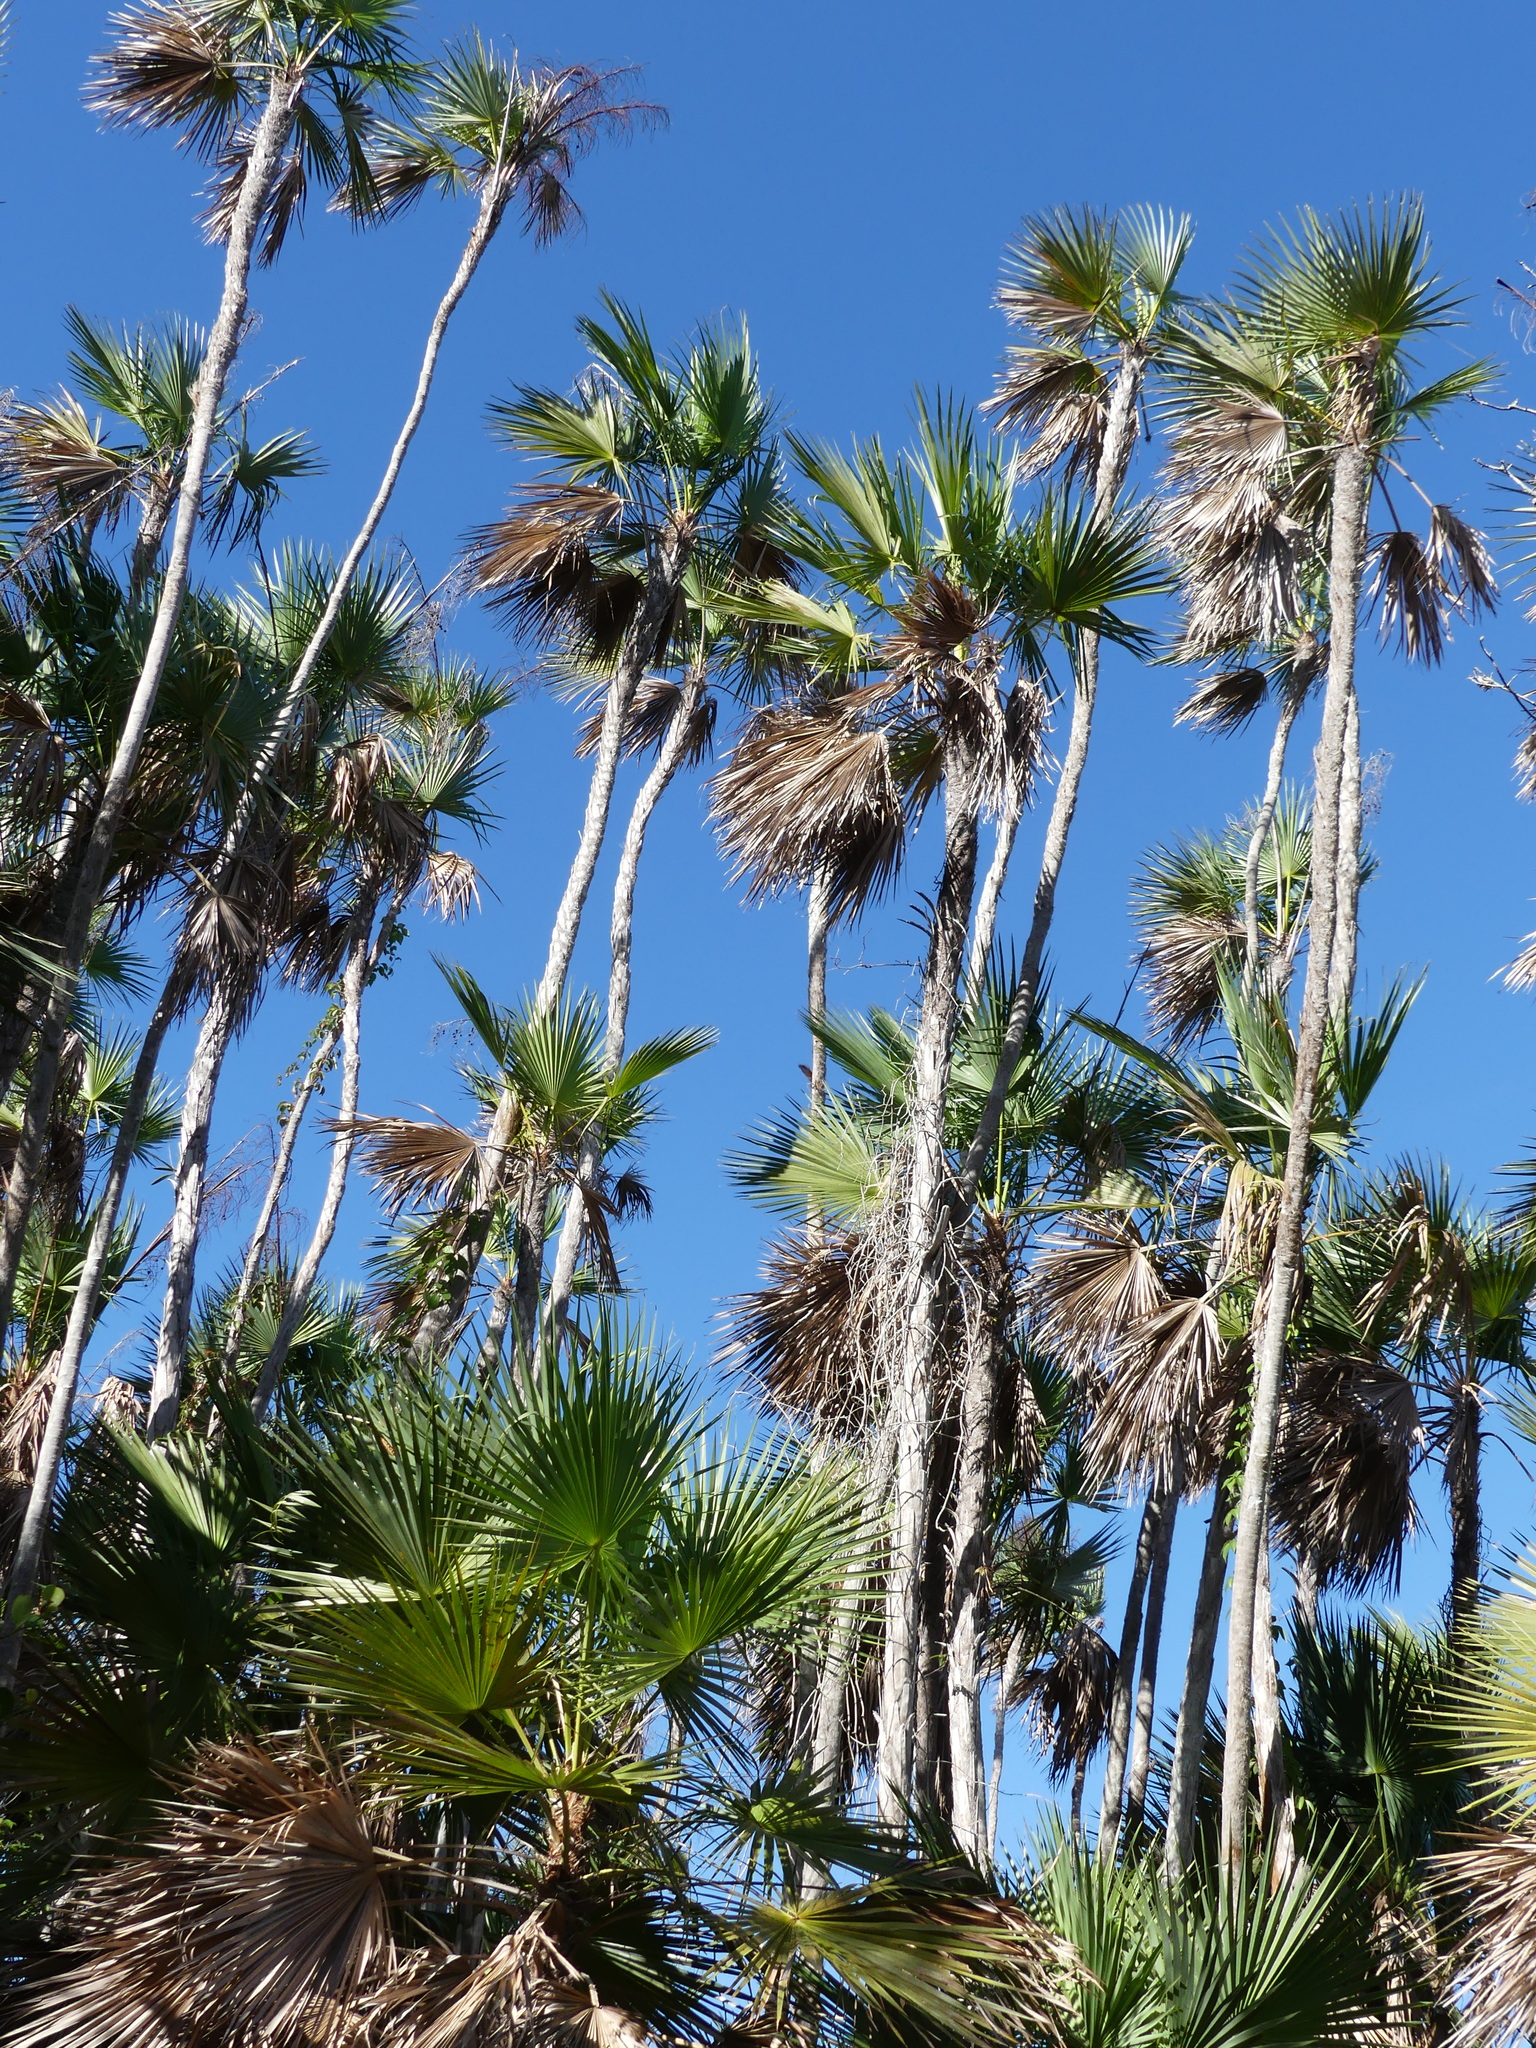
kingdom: Plantae
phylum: Tracheophyta
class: Liliopsida
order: Arecales
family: Arecaceae
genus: Acoelorraphe
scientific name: Acoelorraphe wrightii
